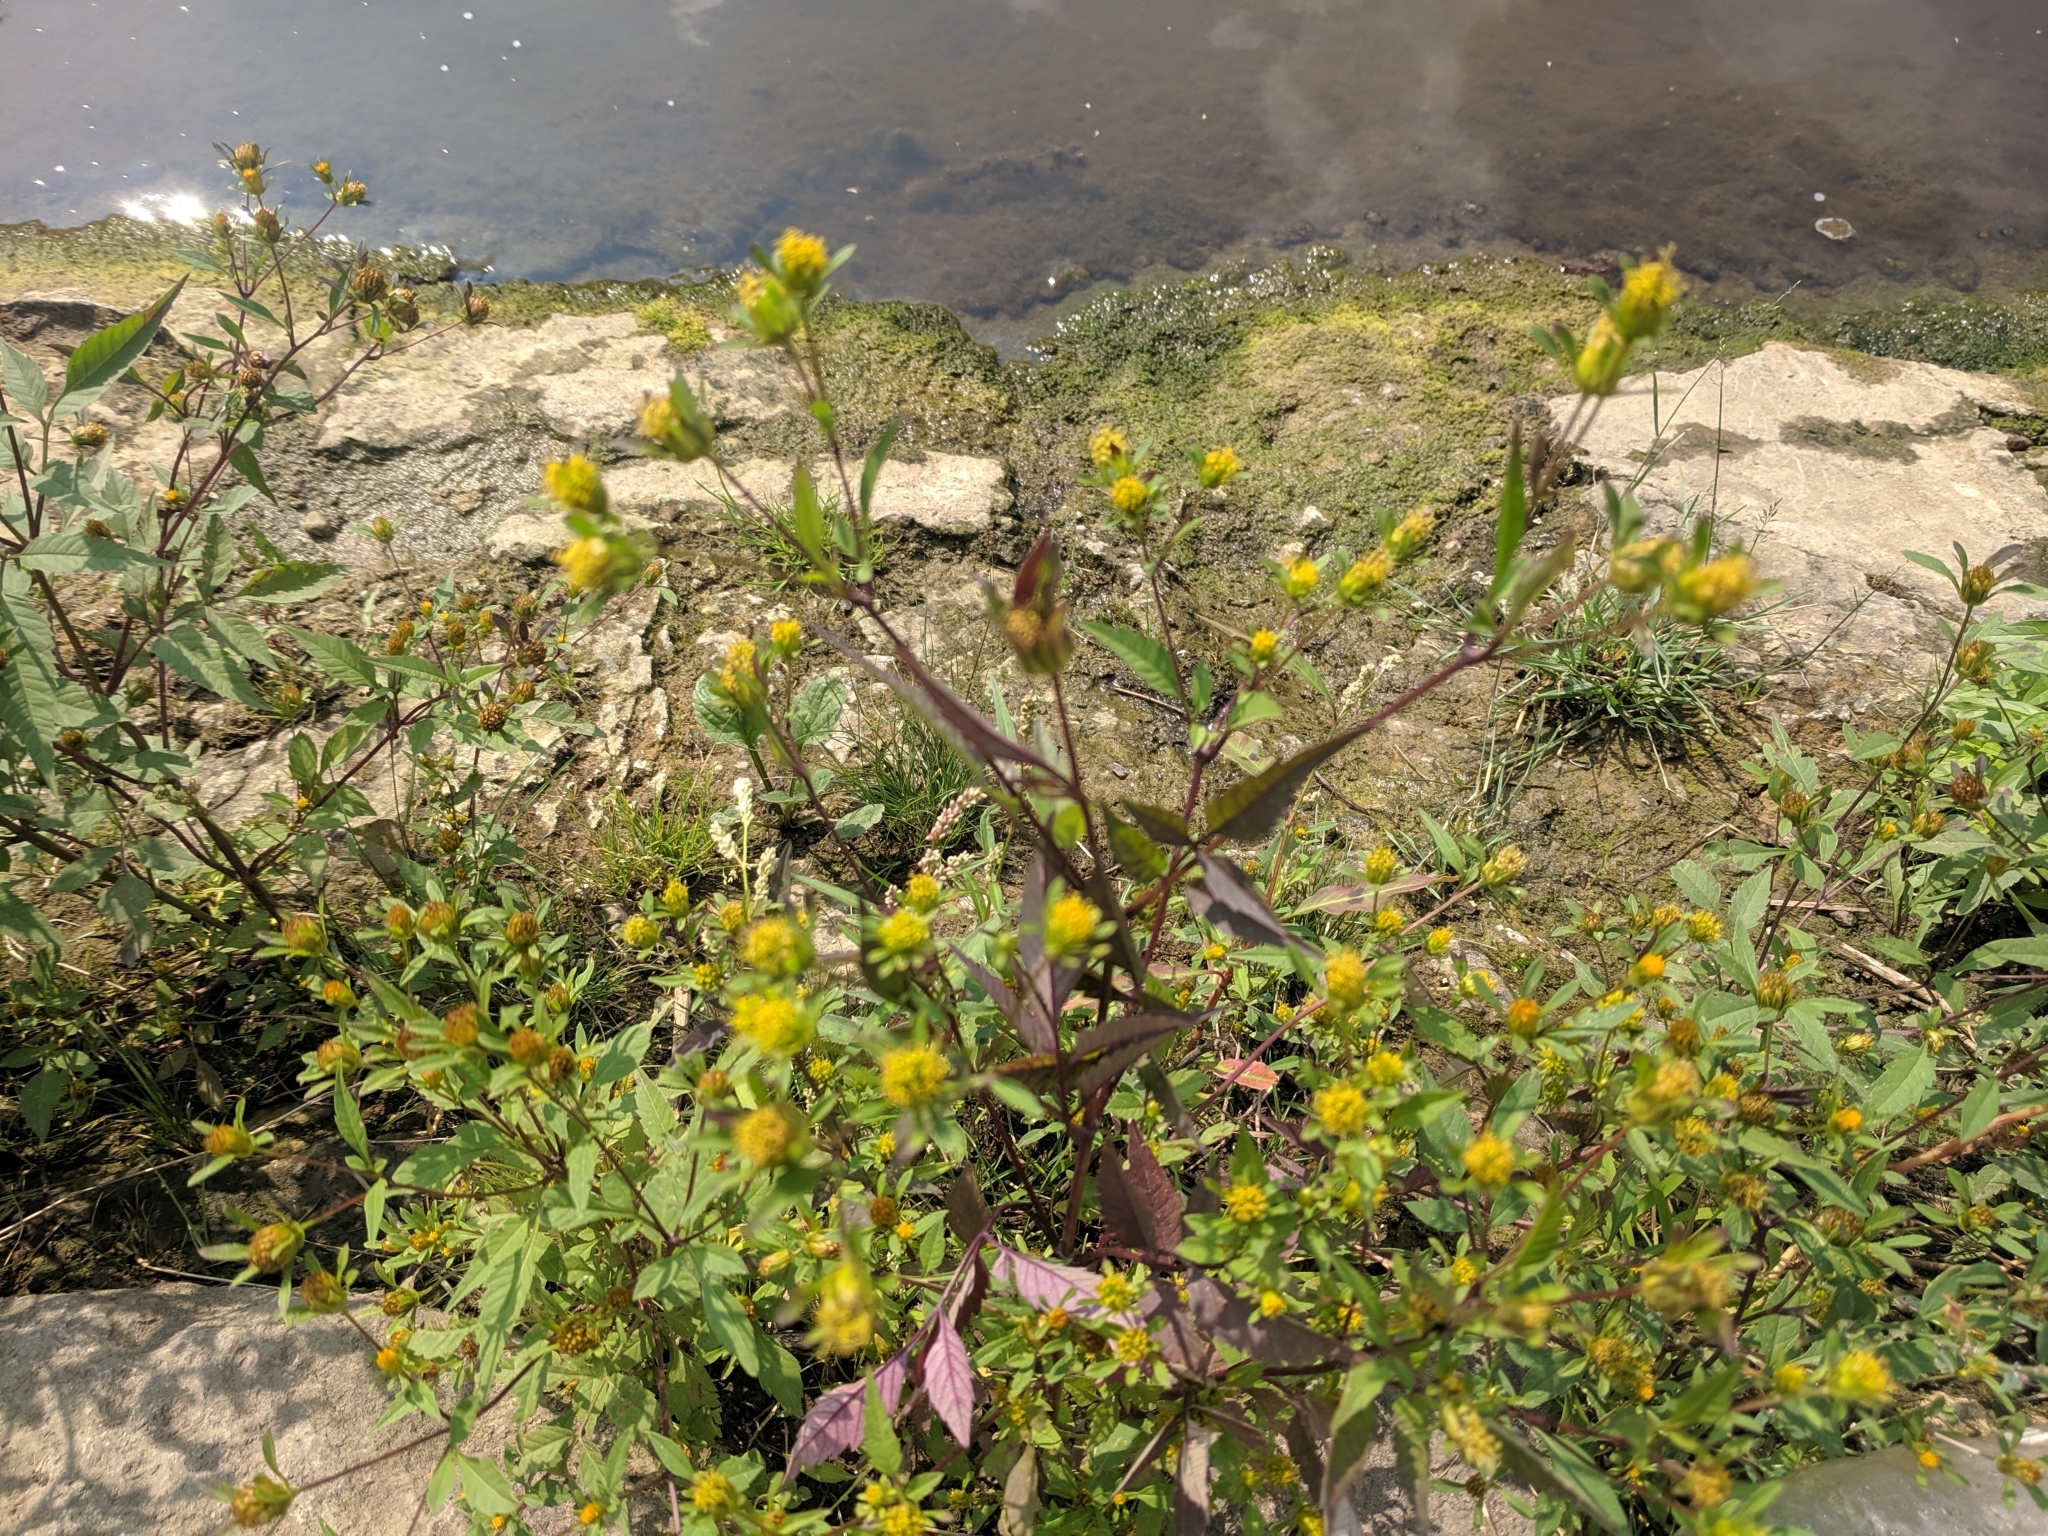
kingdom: Plantae
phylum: Tracheophyta
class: Magnoliopsida
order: Asterales
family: Asteraceae
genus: Bidens
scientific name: Bidens frondosa
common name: Beggarticks
